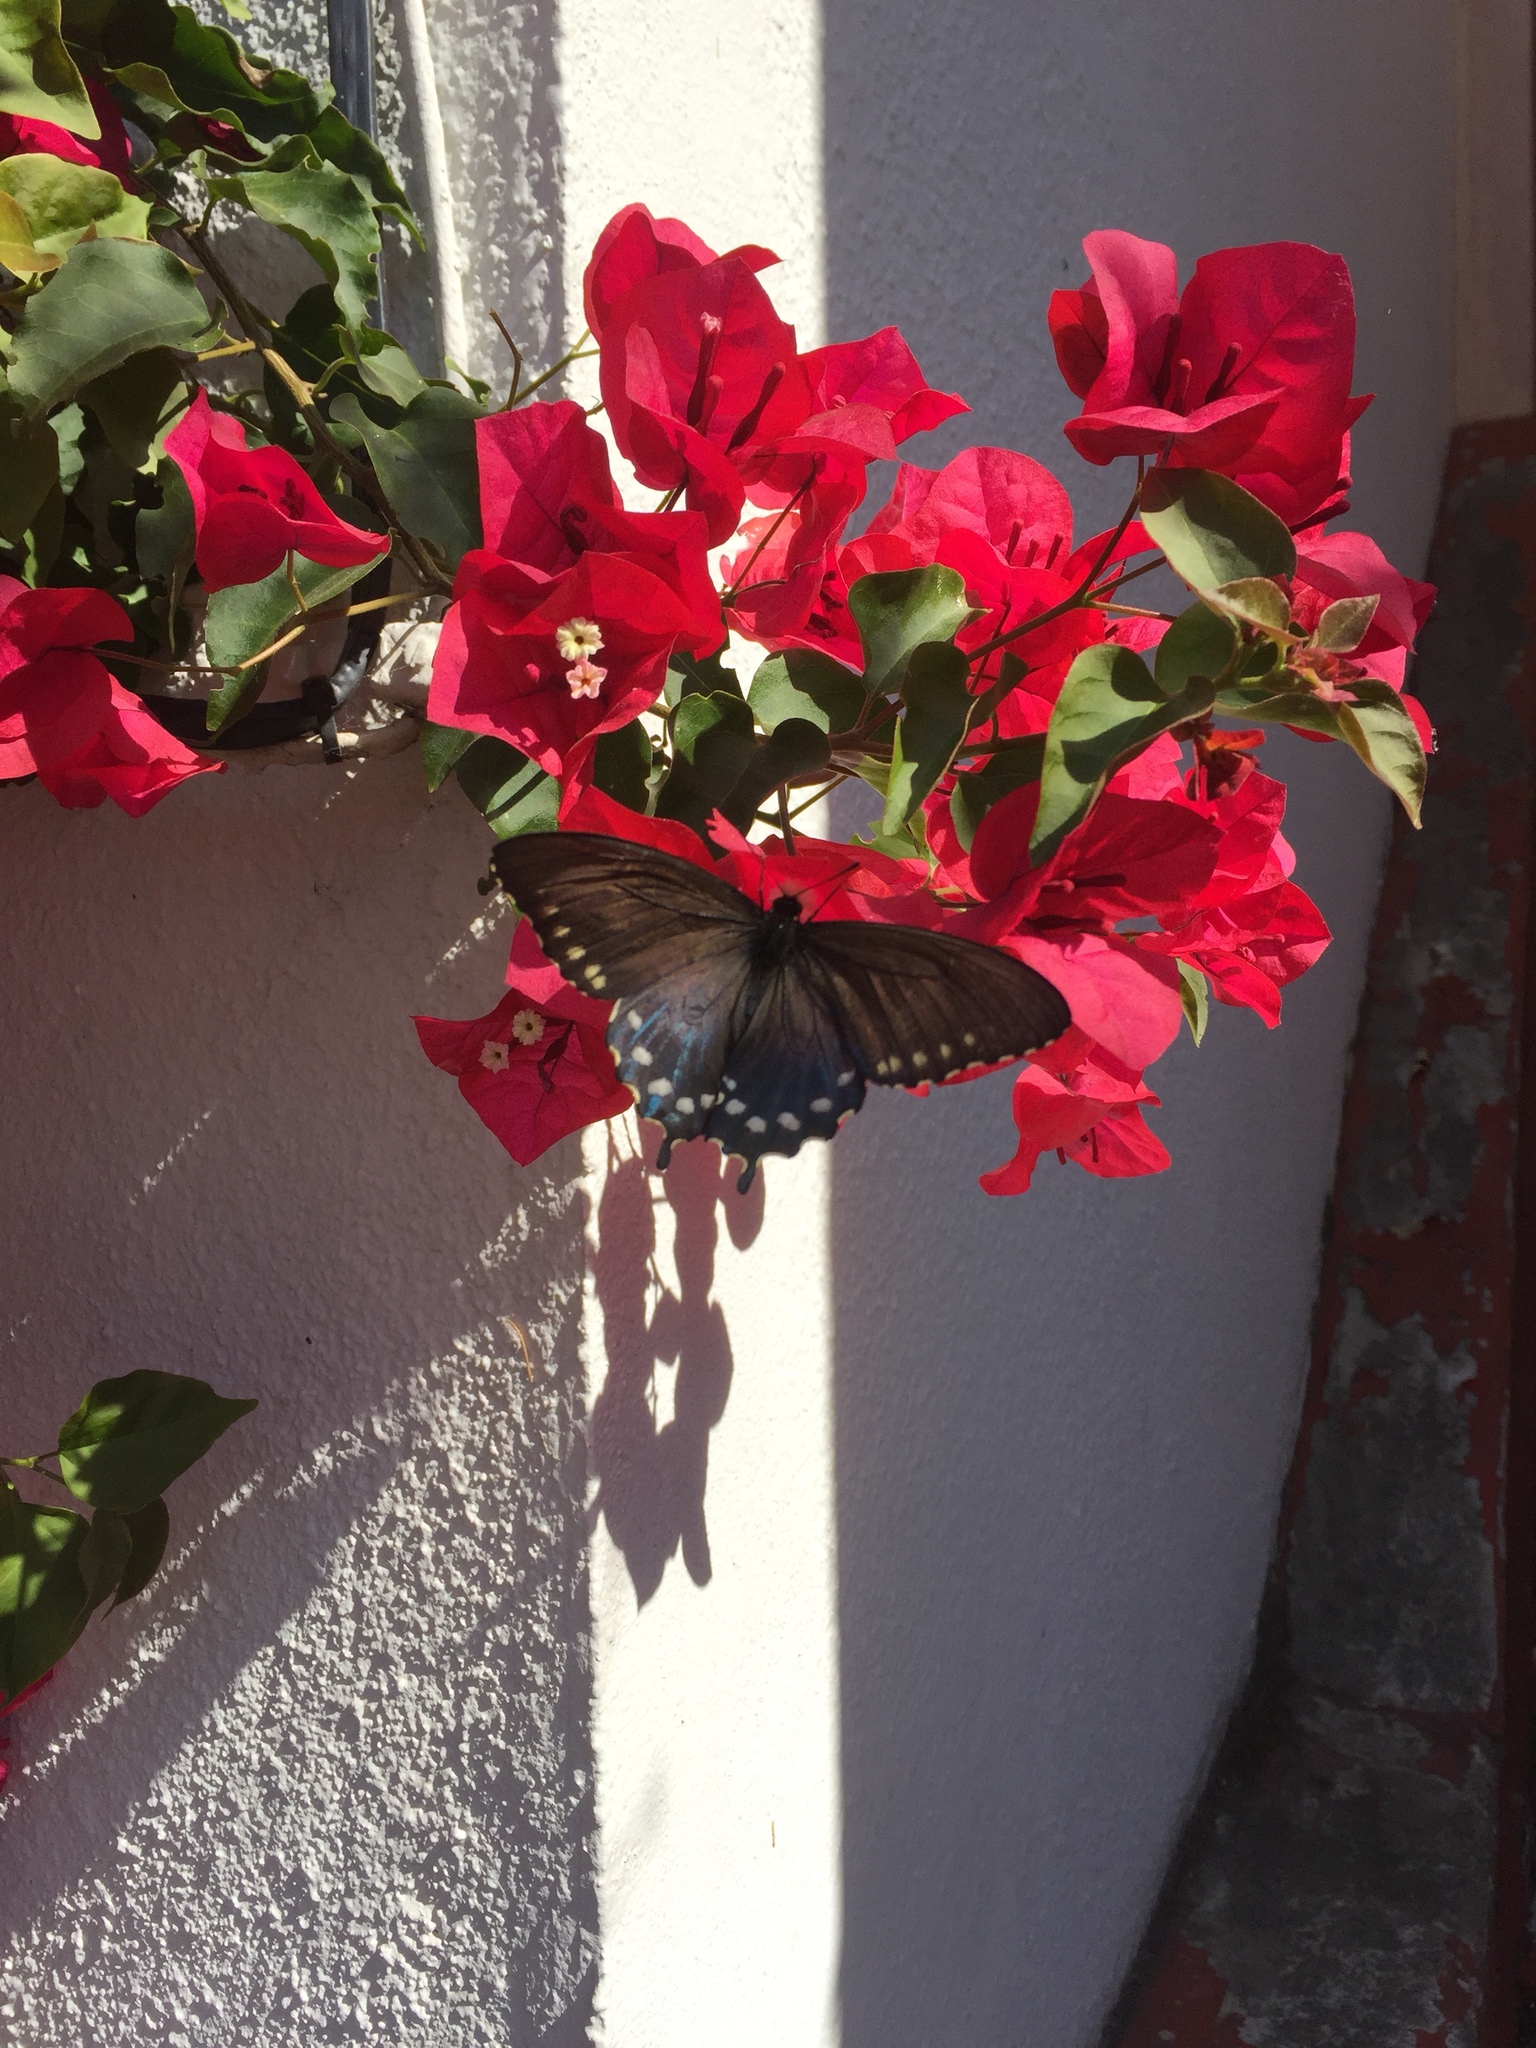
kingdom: Animalia
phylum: Arthropoda
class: Insecta
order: Lepidoptera
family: Papilionidae
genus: Battus
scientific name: Battus philenor
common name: Pipevine swallowtail
